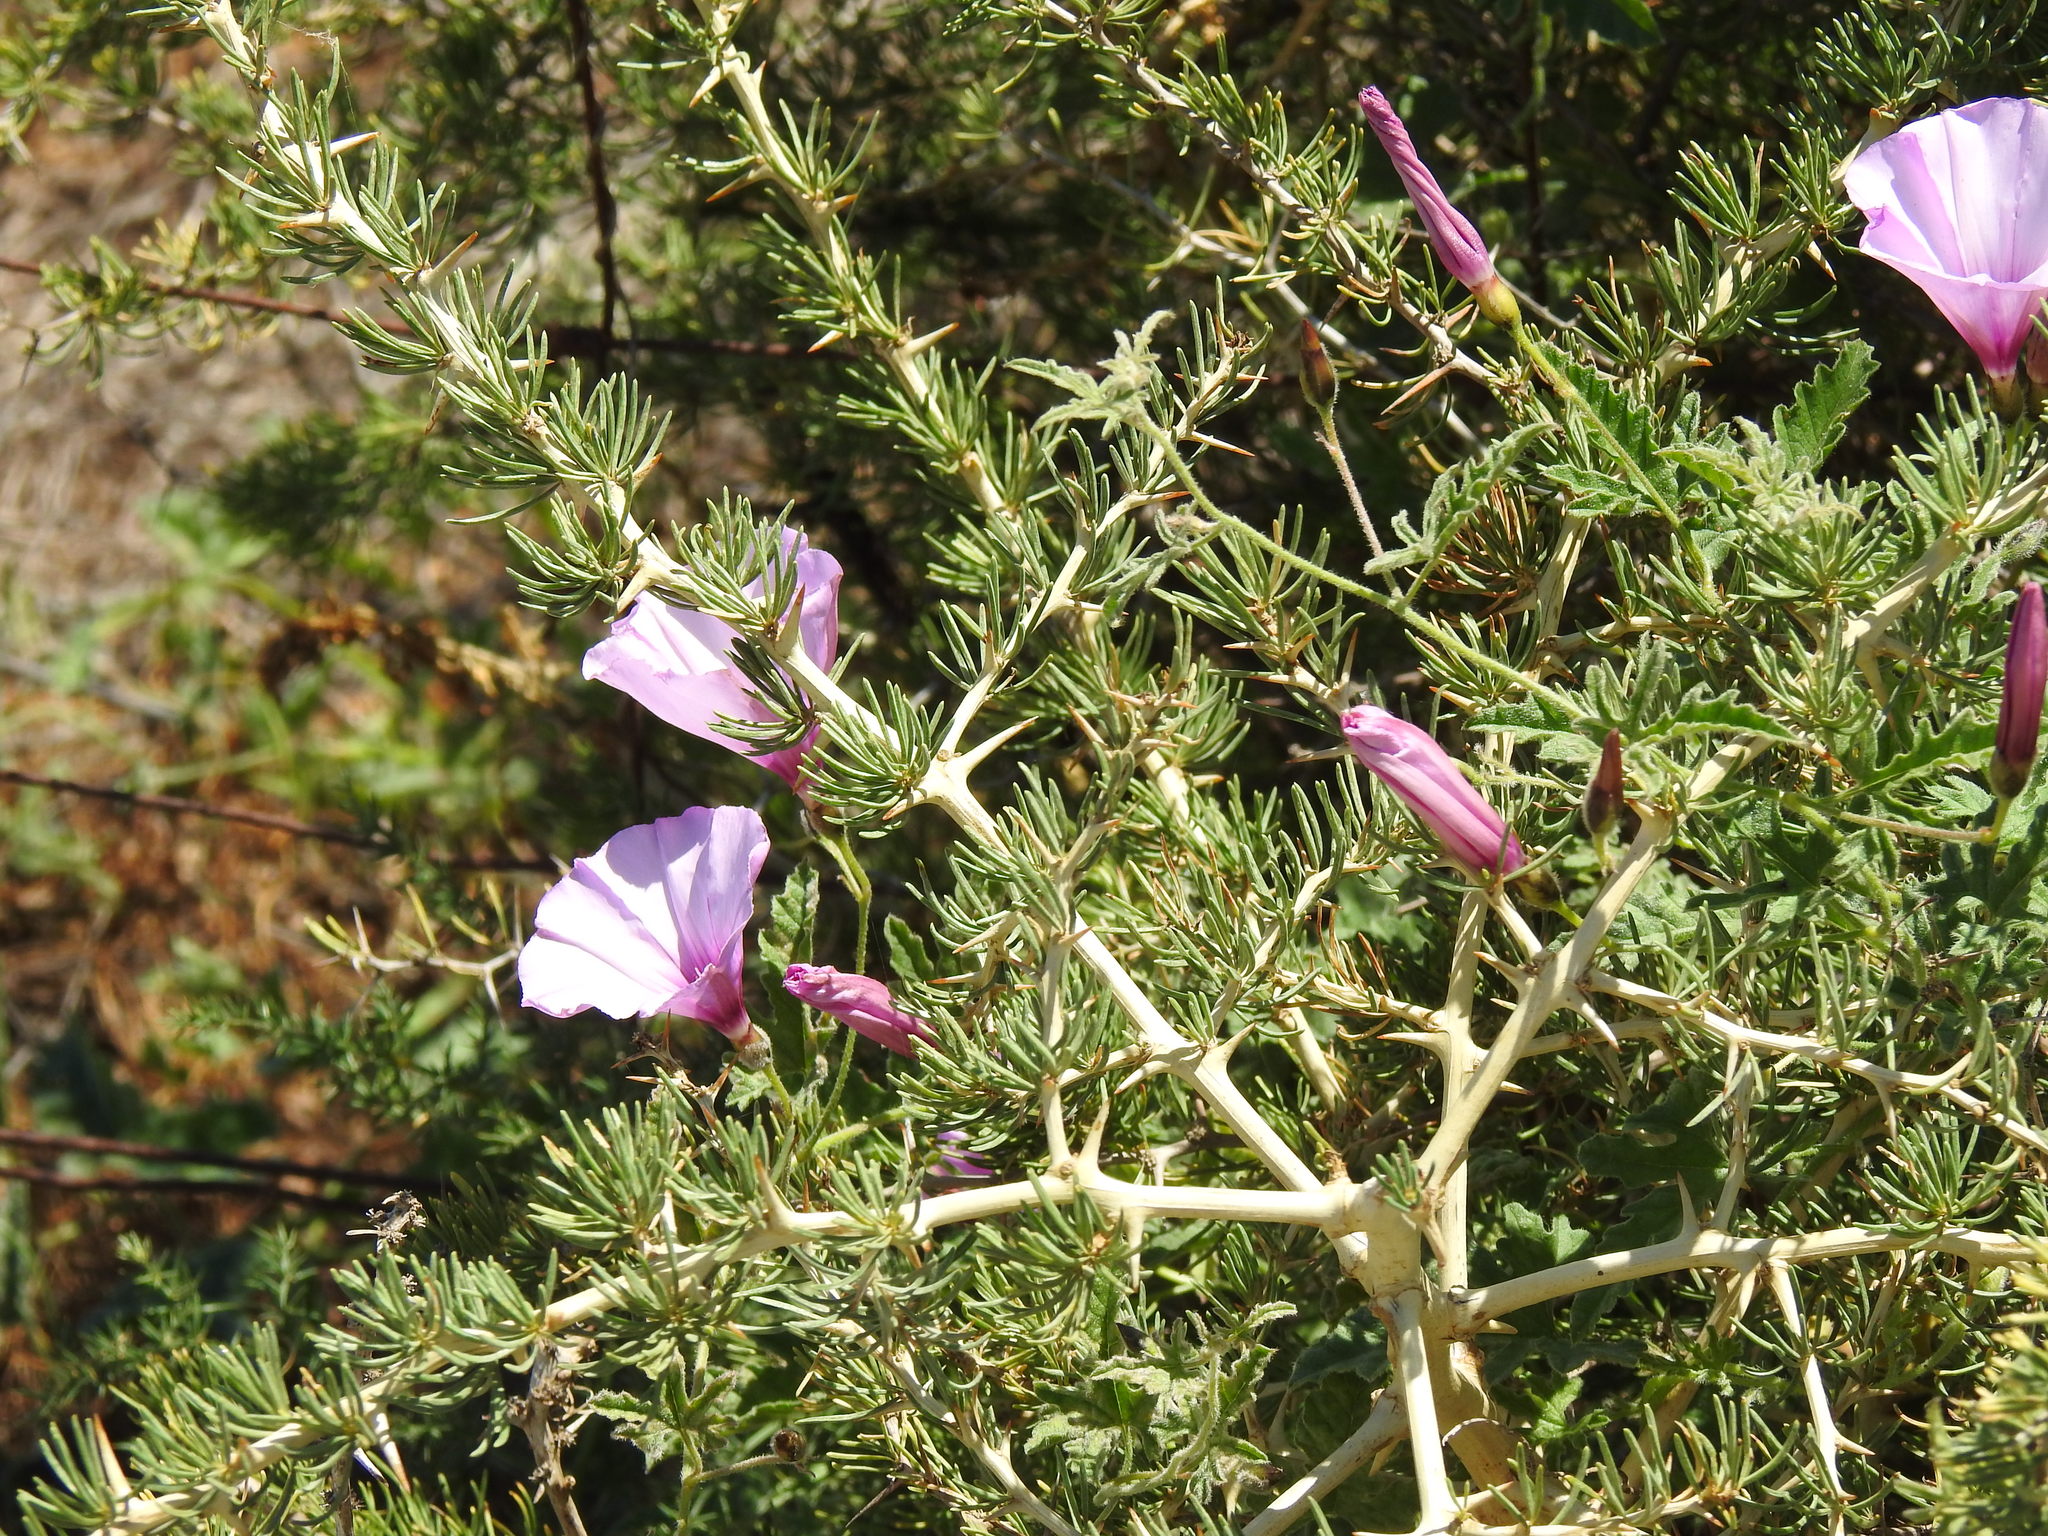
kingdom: Plantae
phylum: Tracheophyta
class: Magnoliopsida
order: Solanales
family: Convolvulaceae
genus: Convolvulus
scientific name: Convolvulus althaeoides
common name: Mallow bindweed
